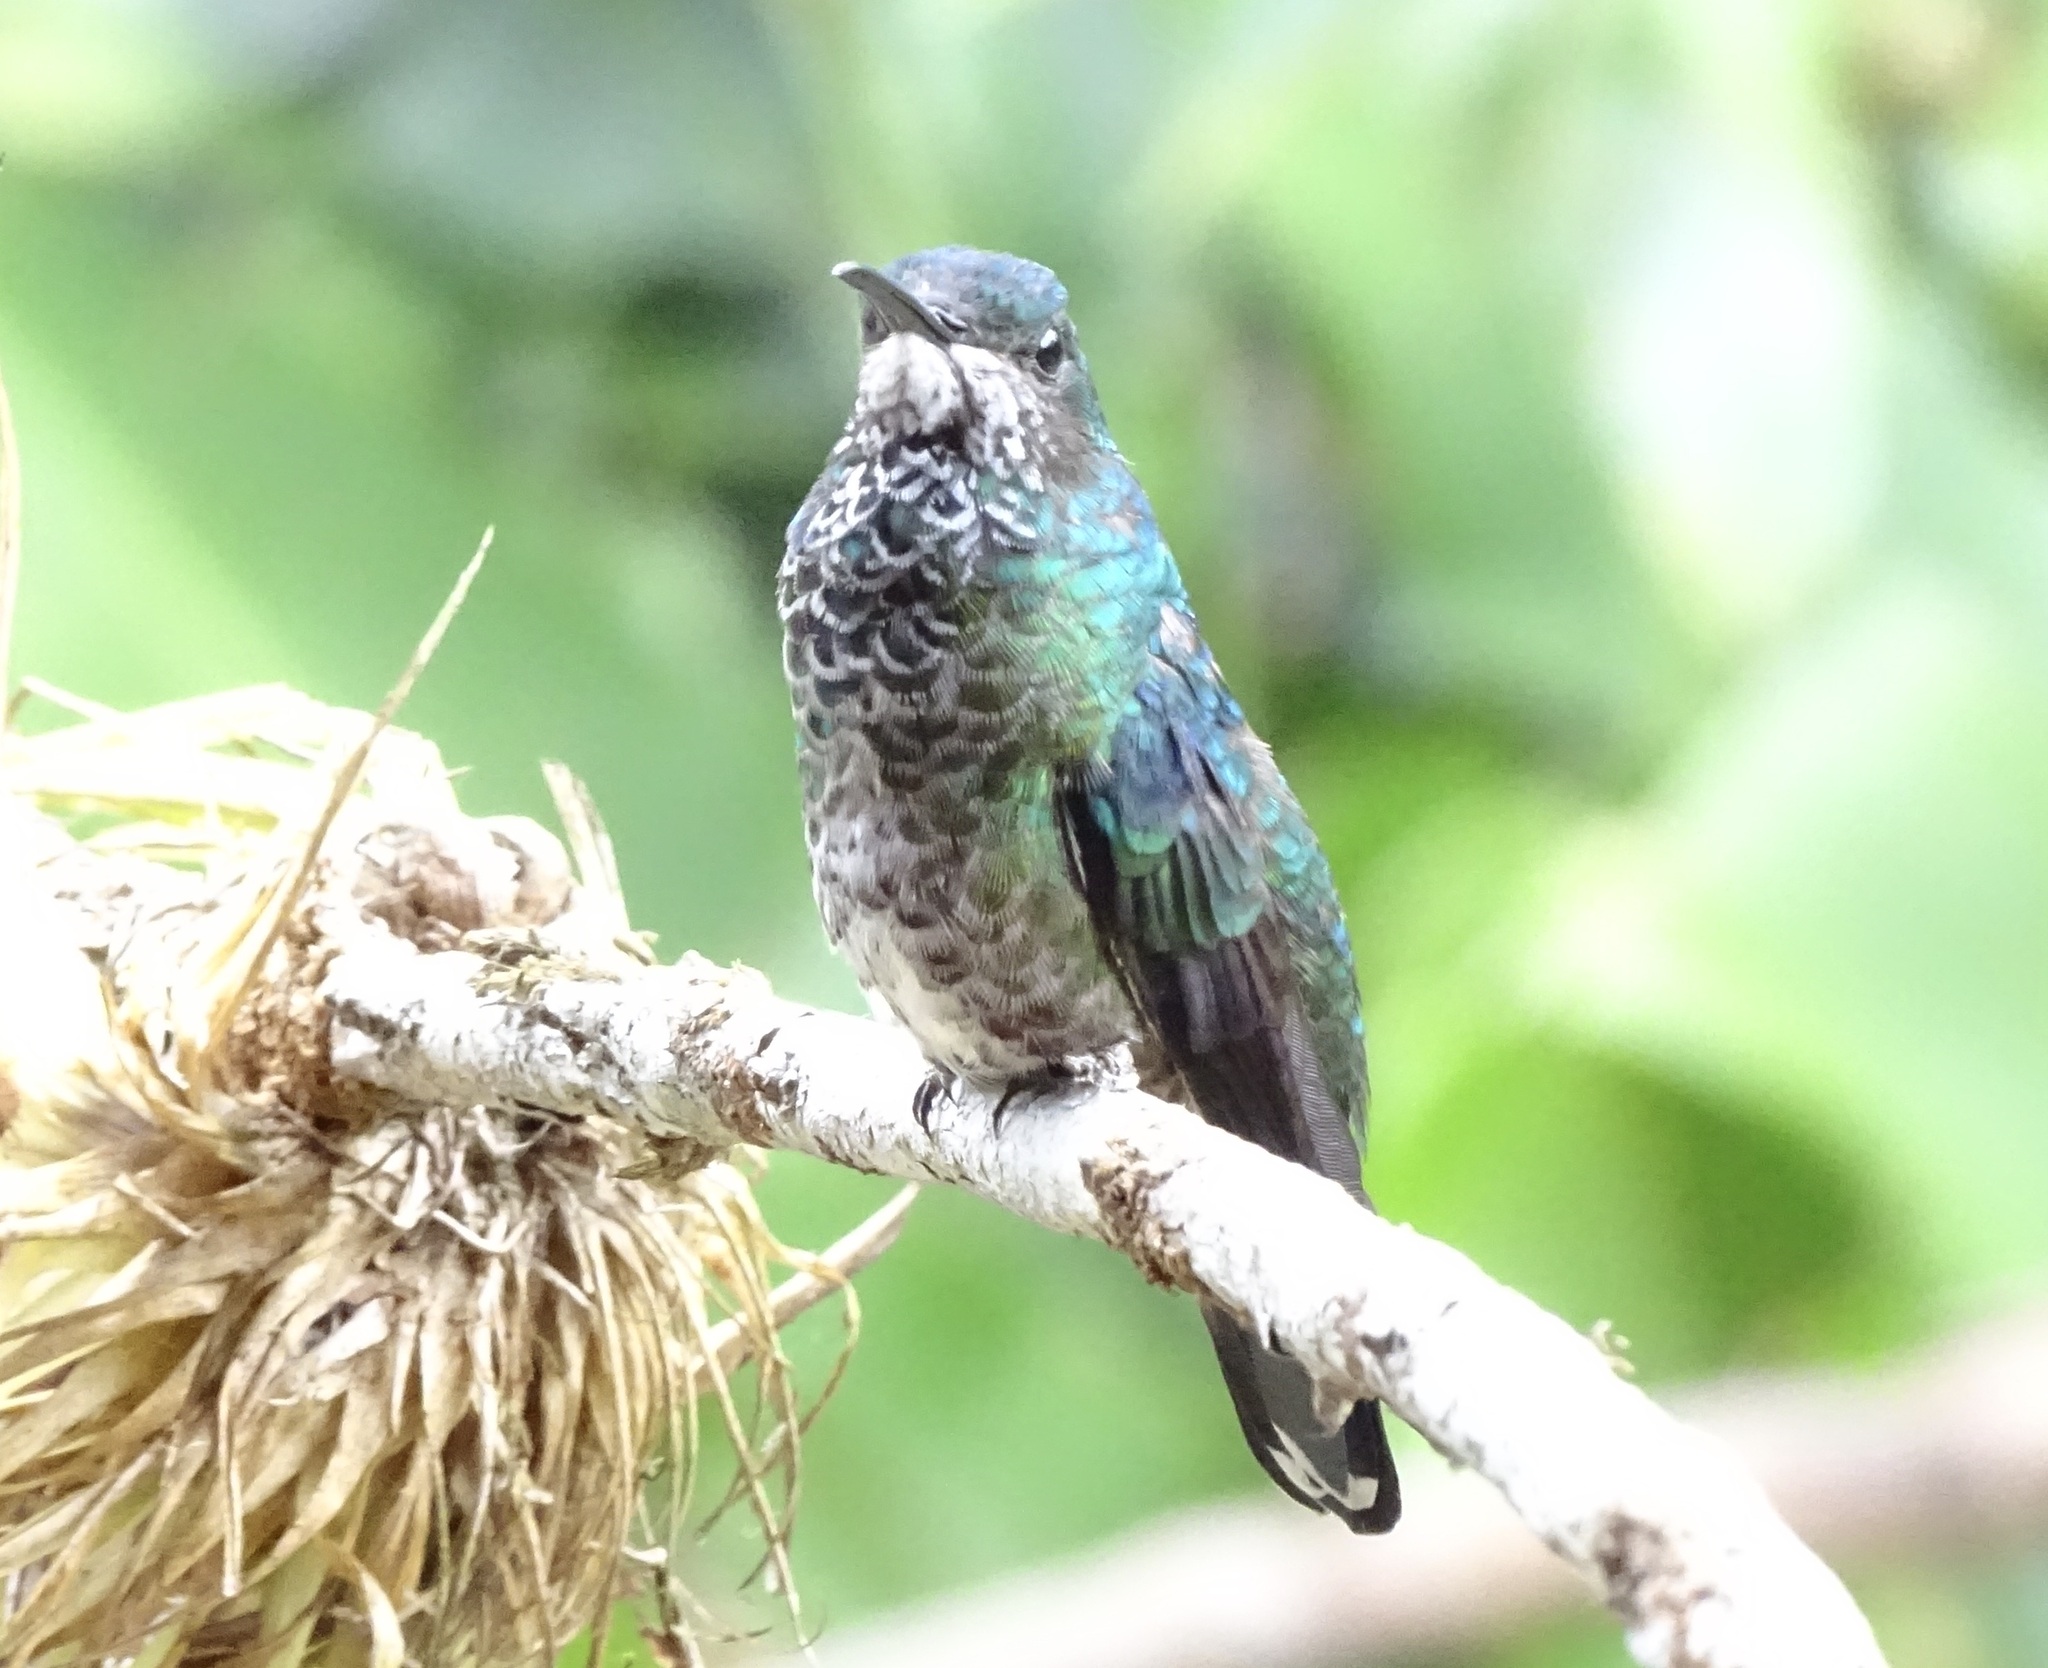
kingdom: Animalia
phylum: Chordata
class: Aves
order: Apodiformes
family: Trochilidae
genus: Florisuga
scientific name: Florisuga mellivora
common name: White-necked jacobin
